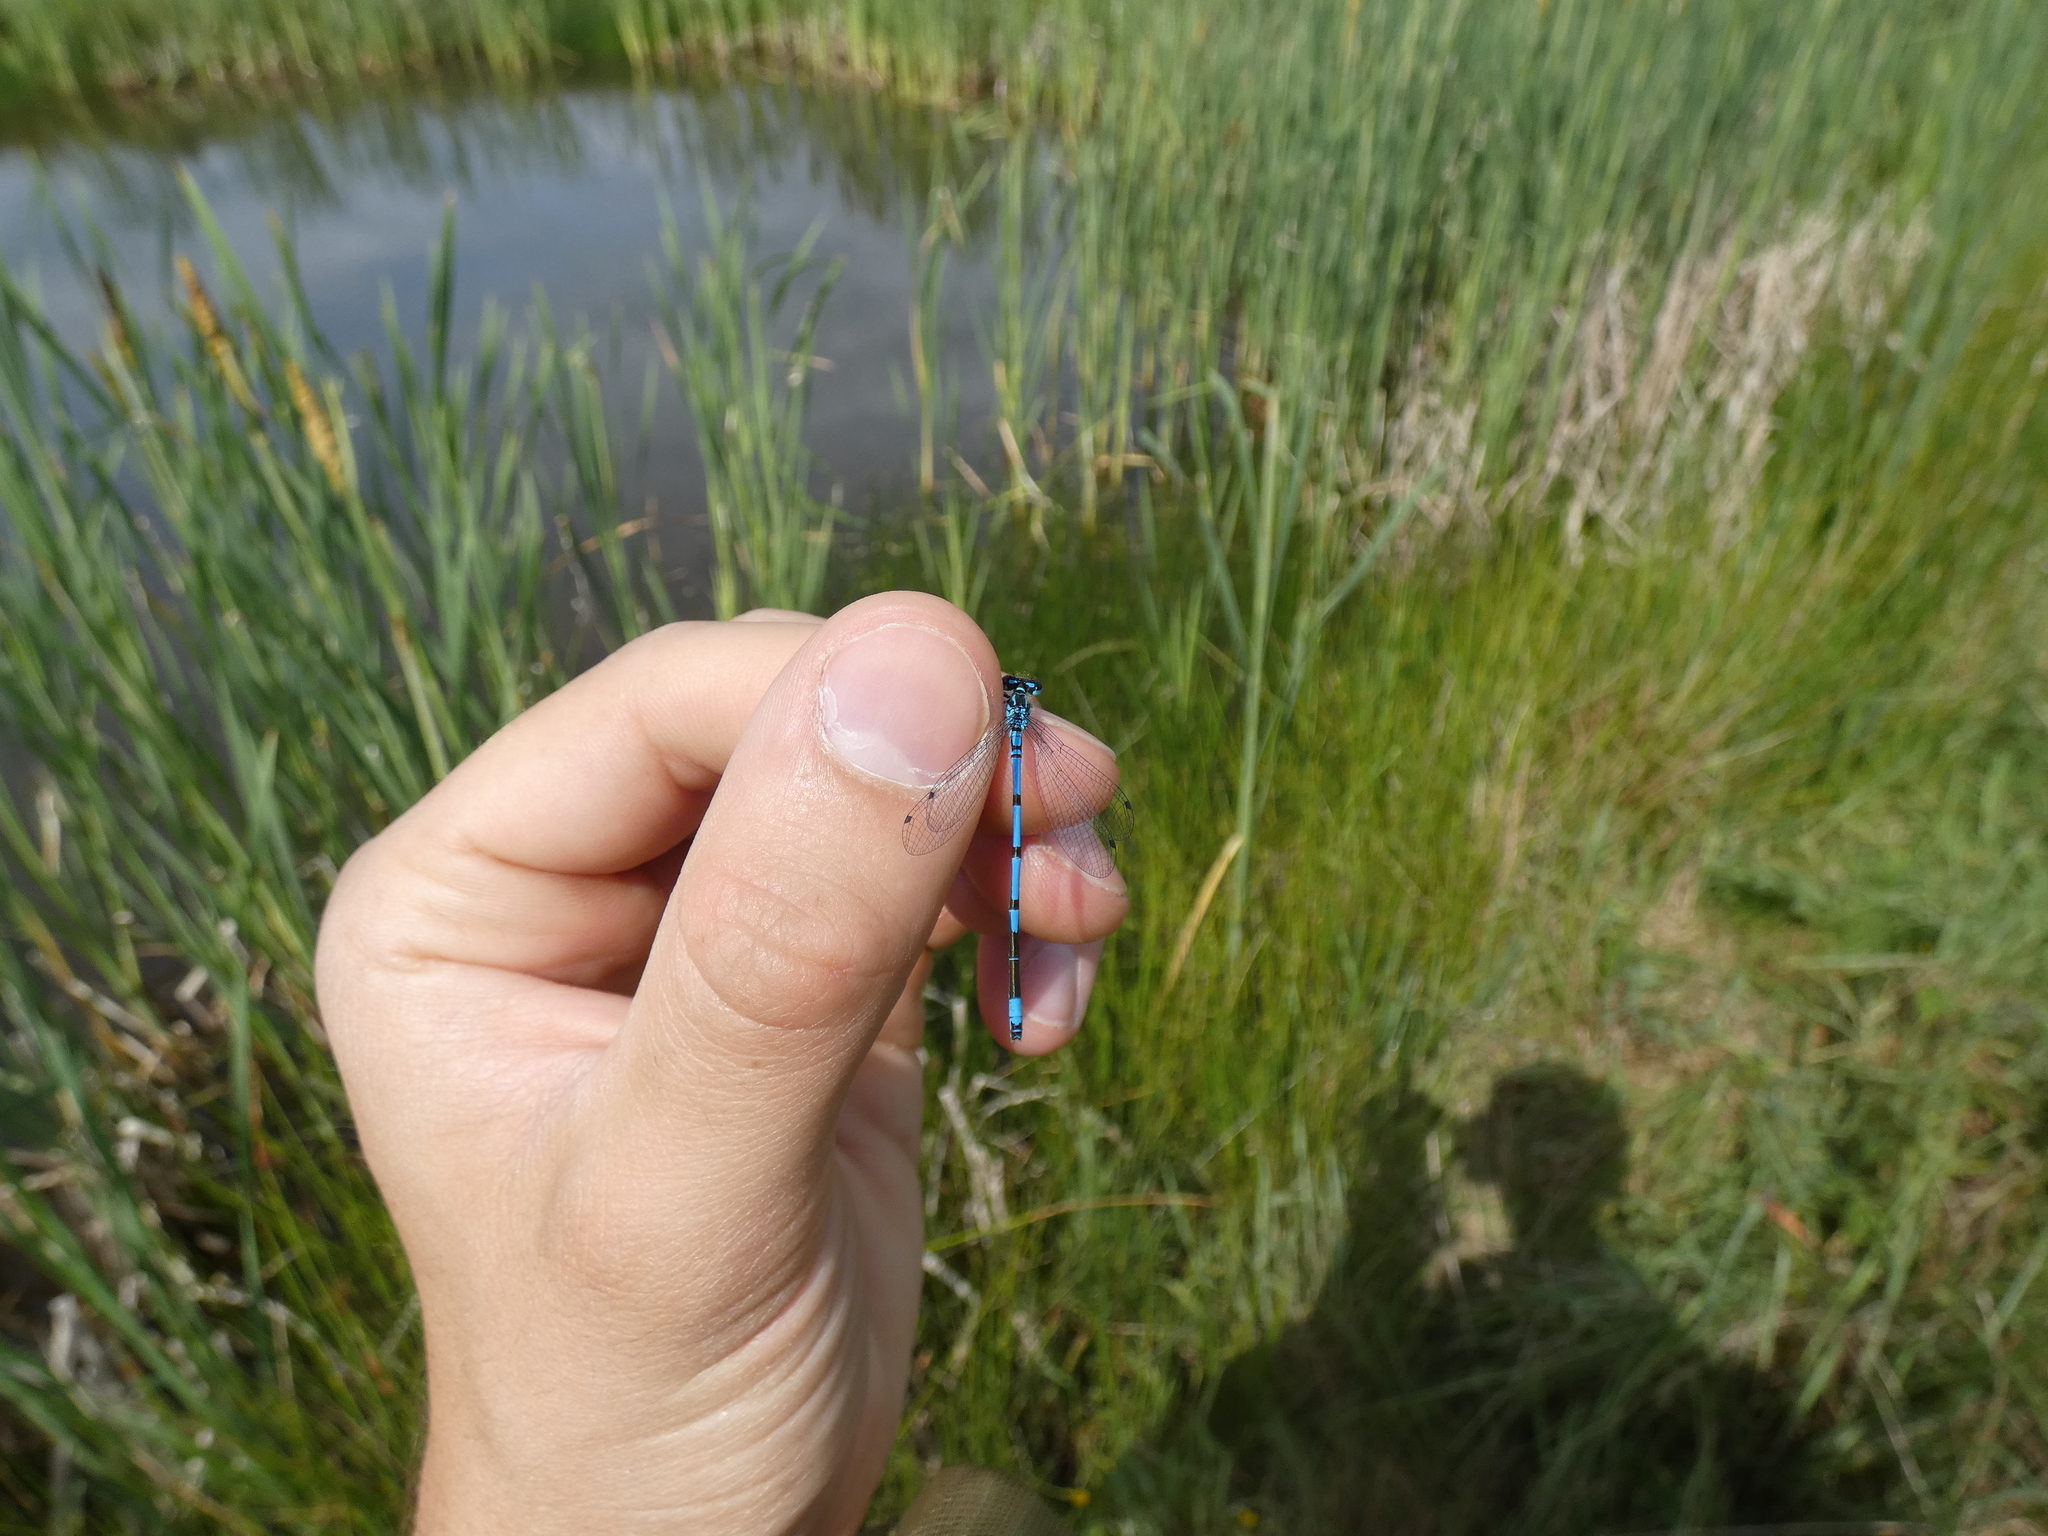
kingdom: Animalia
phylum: Arthropoda
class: Insecta
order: Odonata
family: Coenagrionidae
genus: Coenagrion
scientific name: Coenagrion puella
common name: Azure damselfly
